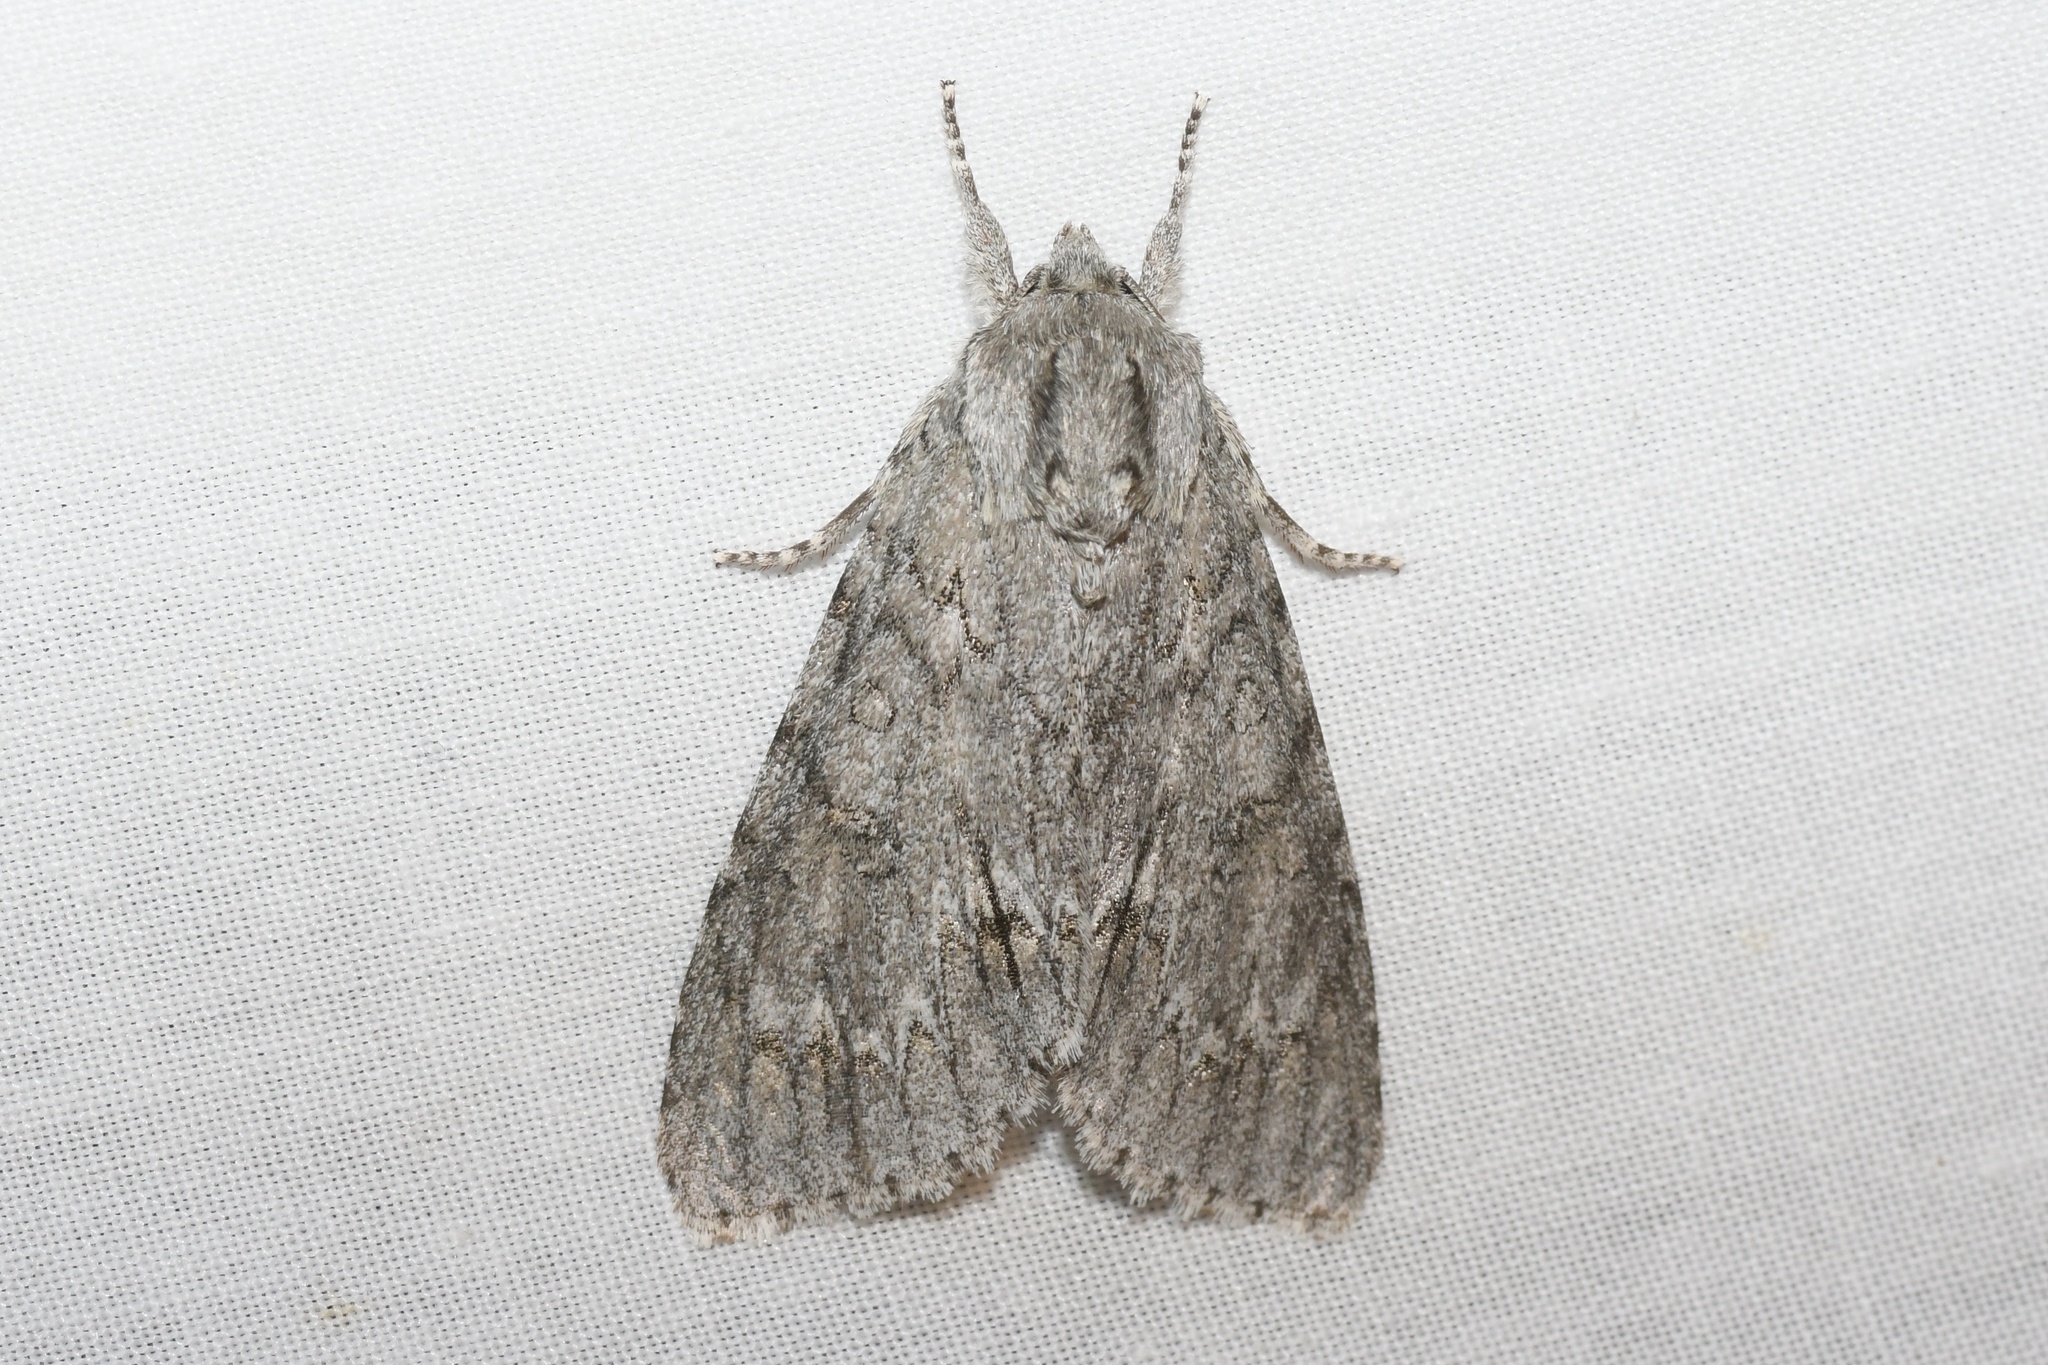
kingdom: Animalia
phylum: Arthropoda
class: Insecta
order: Lepidoptera
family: Noctuidae
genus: Acronicta
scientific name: Acronicta americana
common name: American dagger
